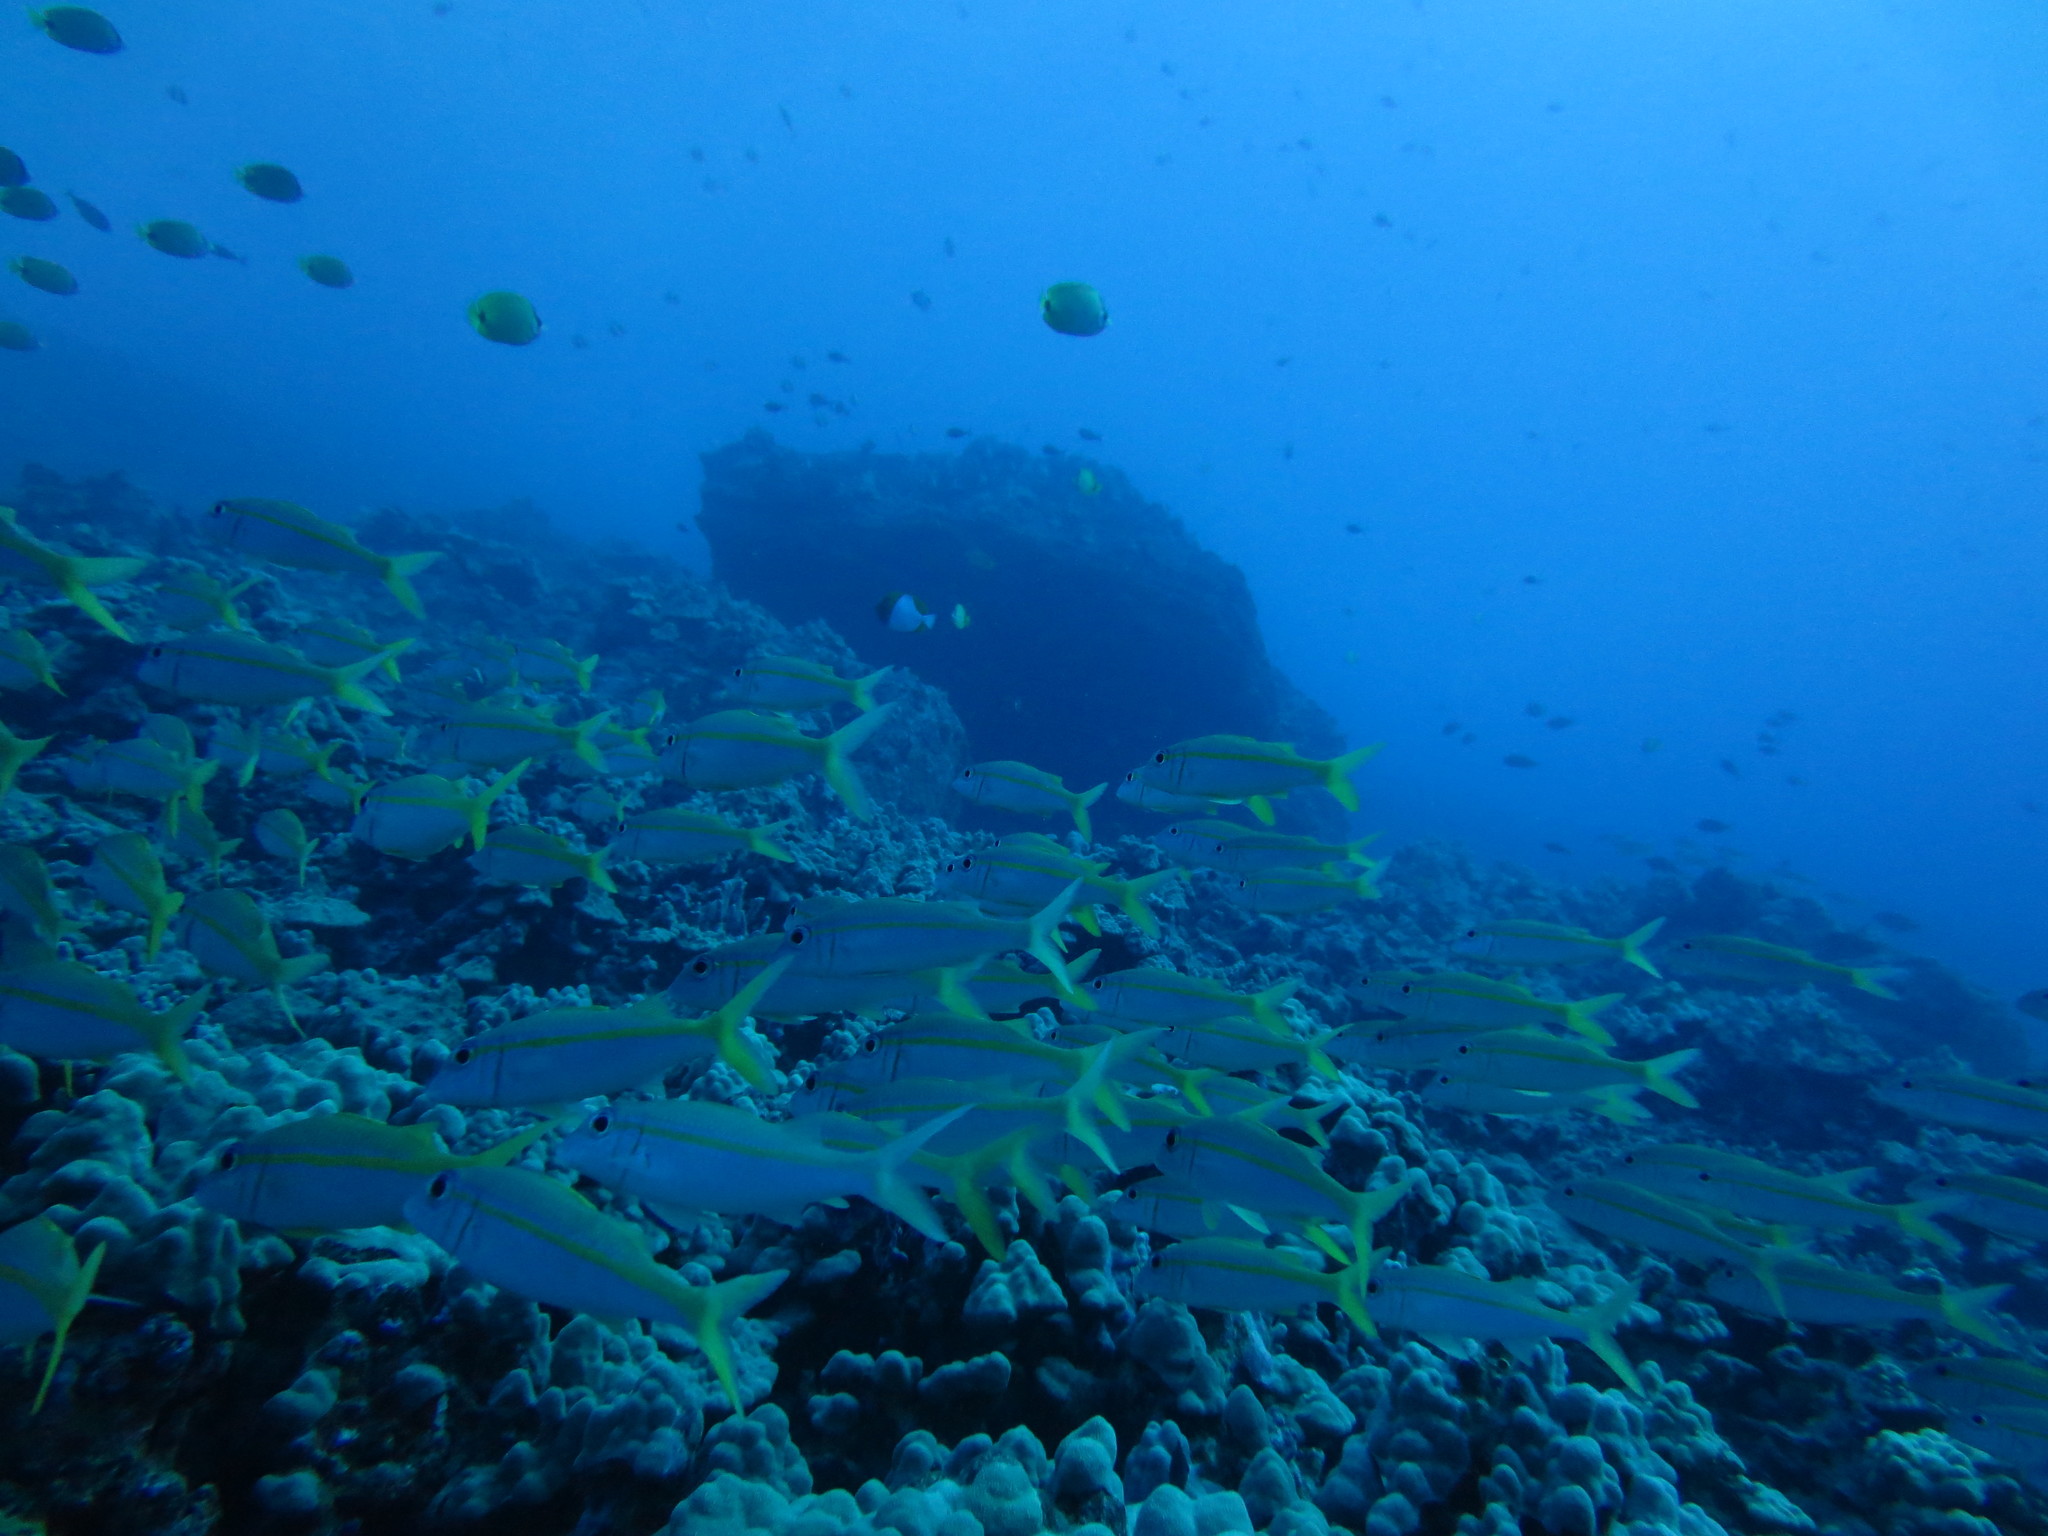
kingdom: Animalia
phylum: Chordata
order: Perciformes
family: Mullidae
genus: Mulloidichthys
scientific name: Mulloidichthys vanicolensis
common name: Yellowfin goatfish
